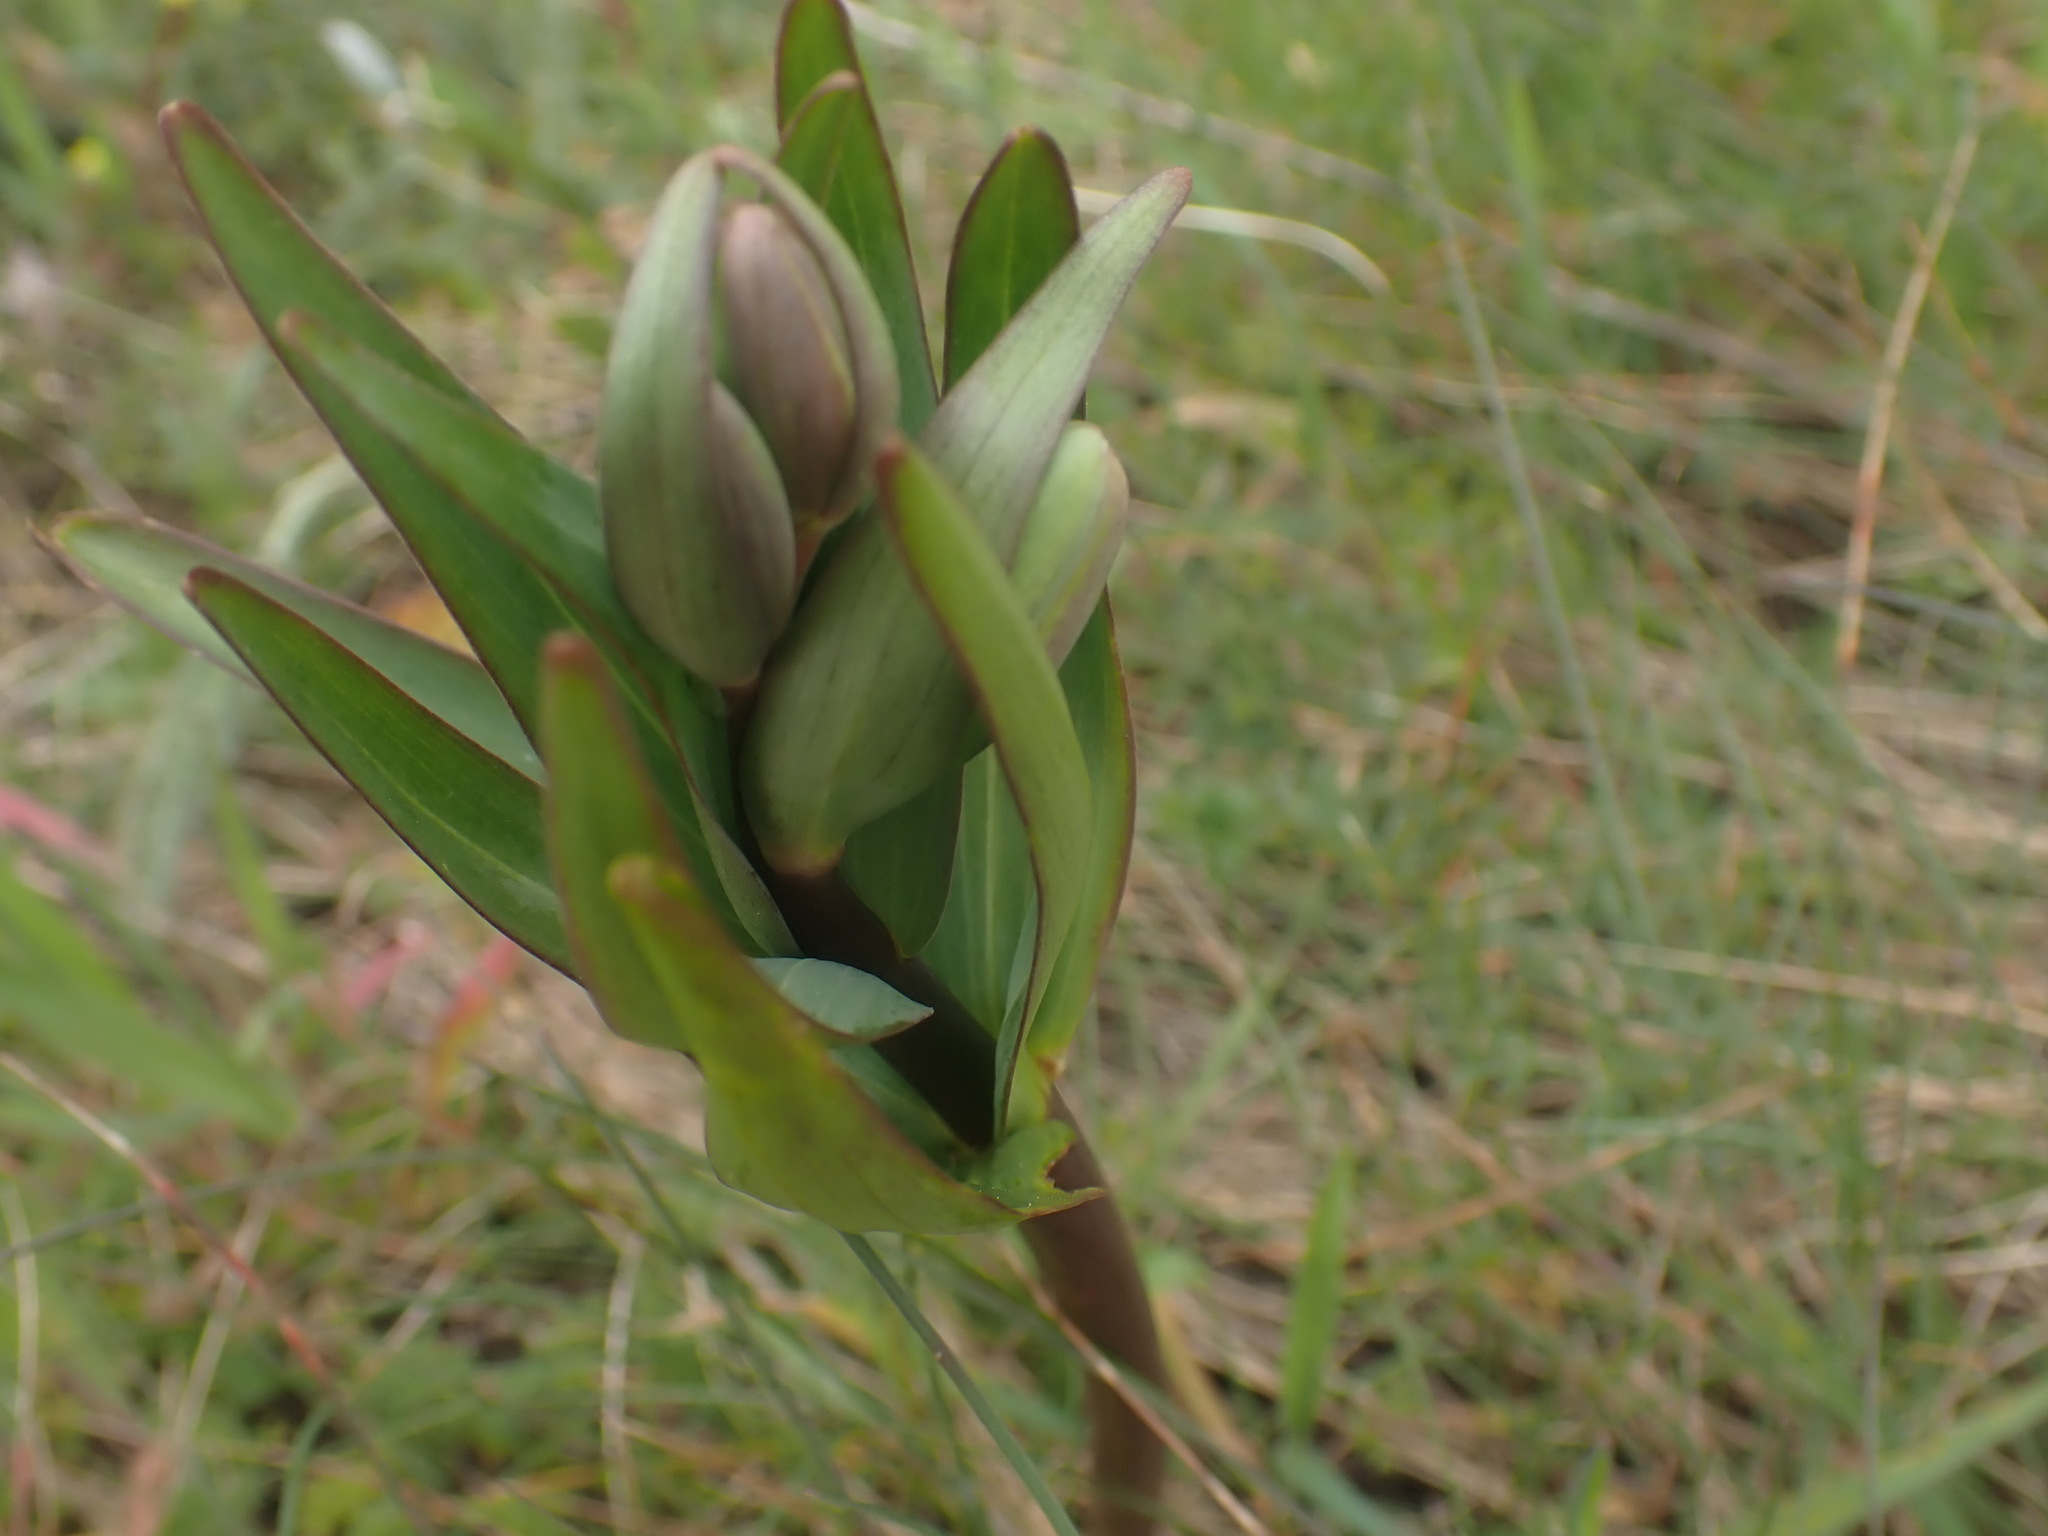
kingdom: Plantae
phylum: Tracheophyta
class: Liliopsida
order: Liliales
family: Liliaceae
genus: Fritillaria
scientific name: Fritillaria affinis
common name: Ojai fritillary
